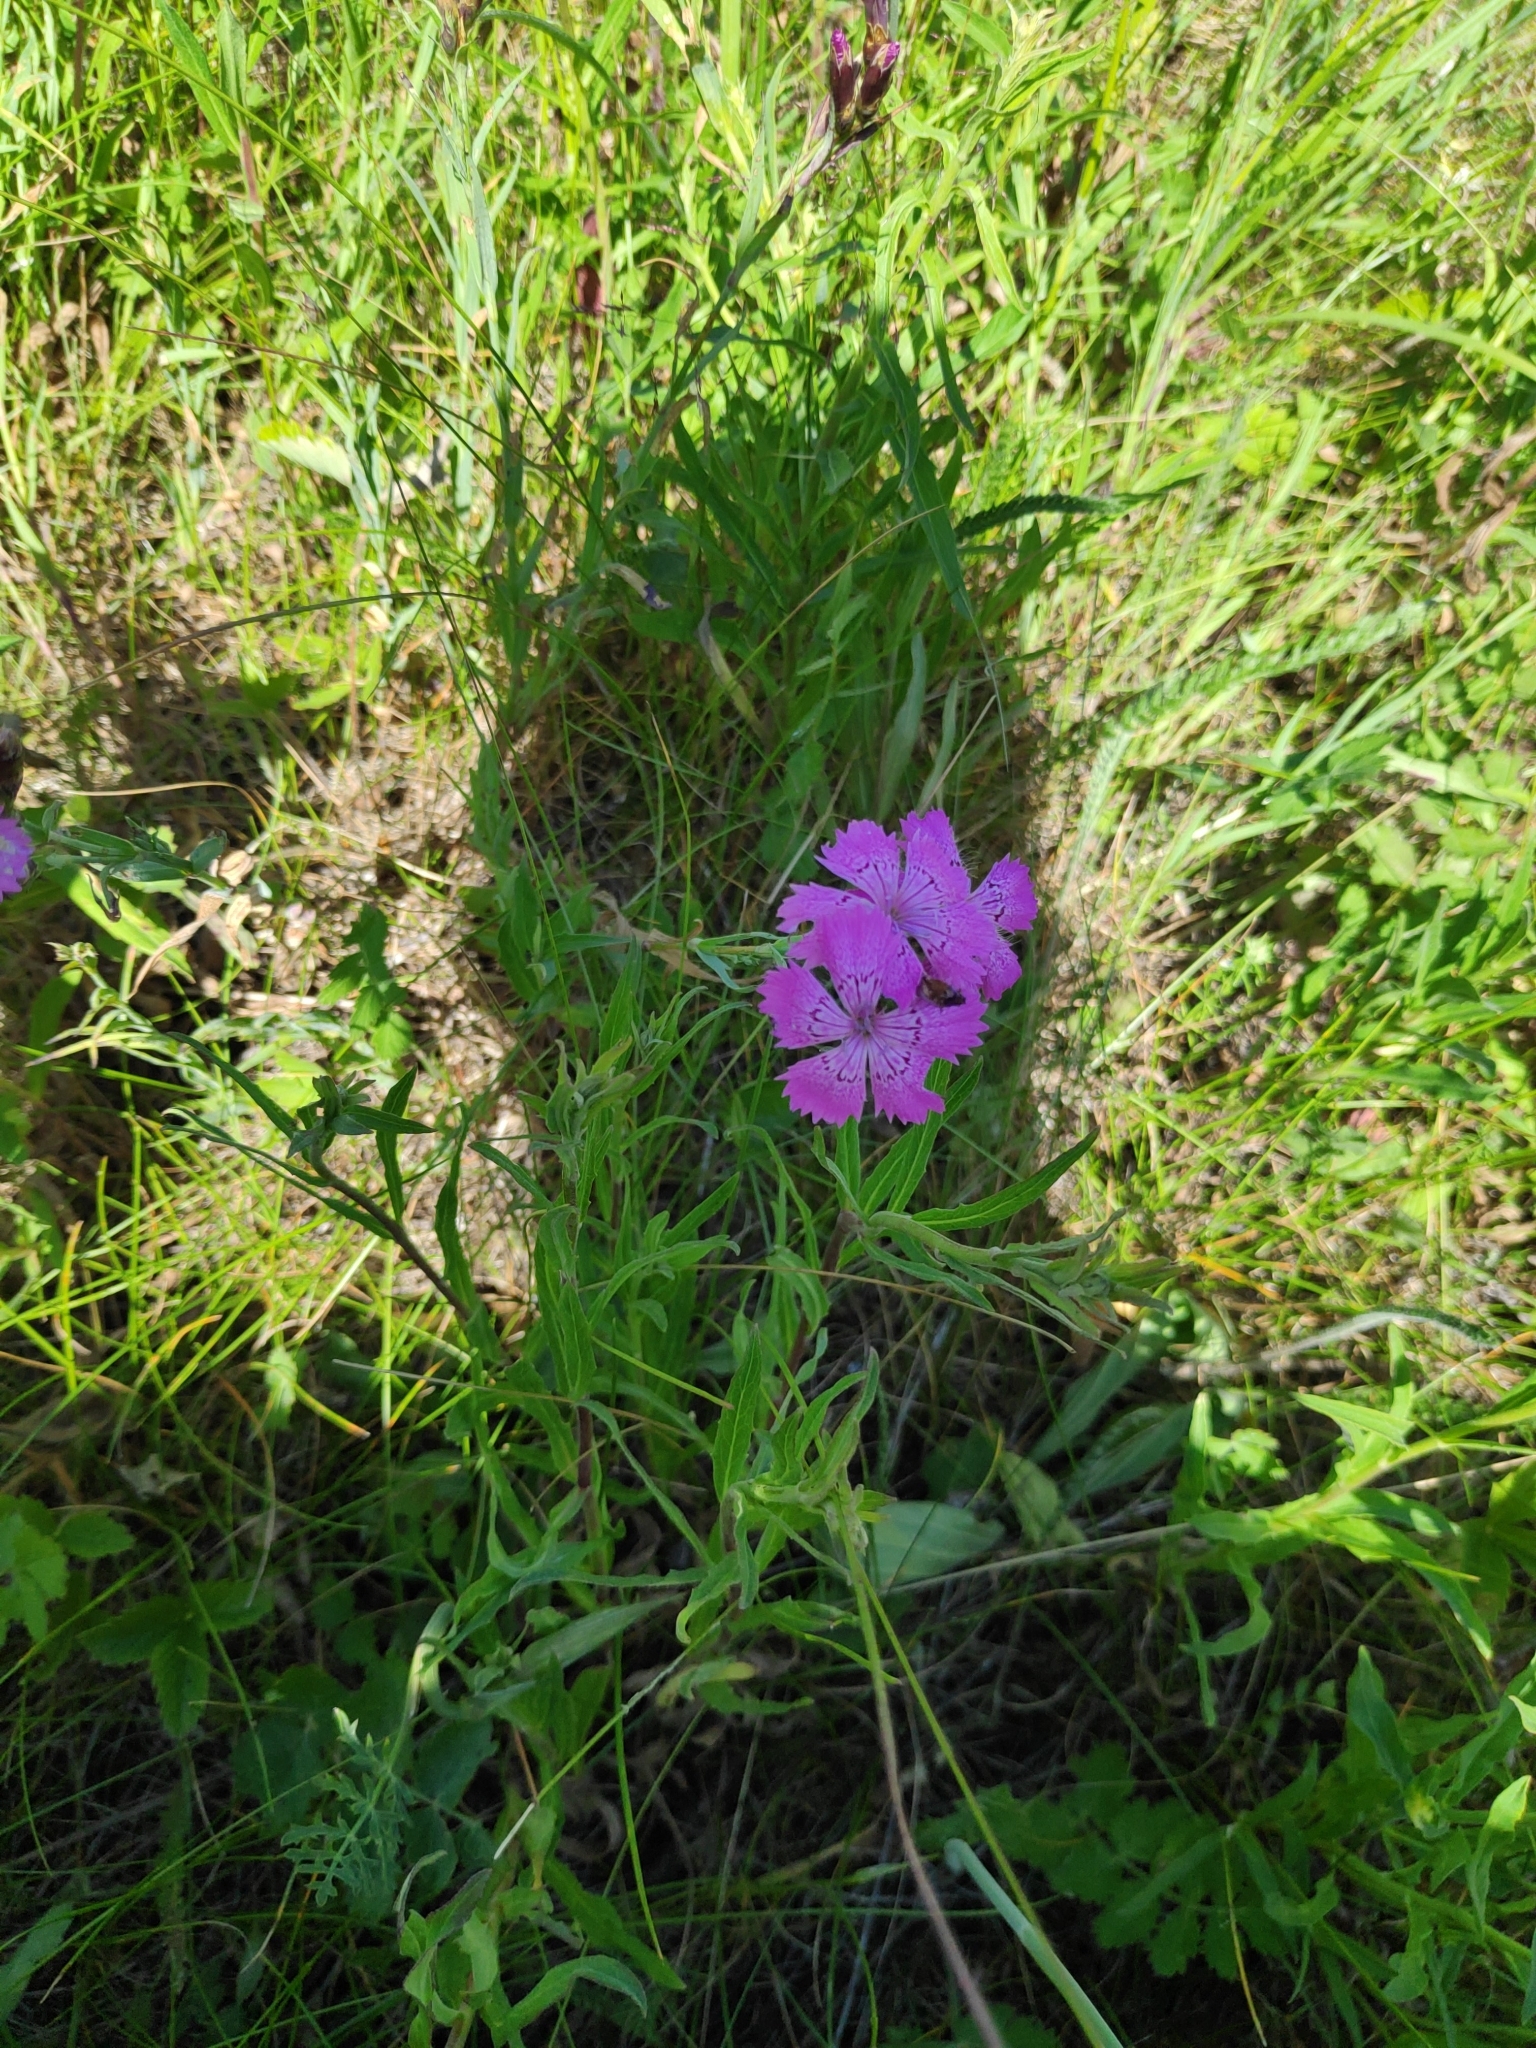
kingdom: Plantae
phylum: Tracheophyta
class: Magnoliopsida
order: Caryophyllales
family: Caryophyllaceae
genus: Dianthus
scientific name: Dianthus chinensis
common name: Rainbow pink
